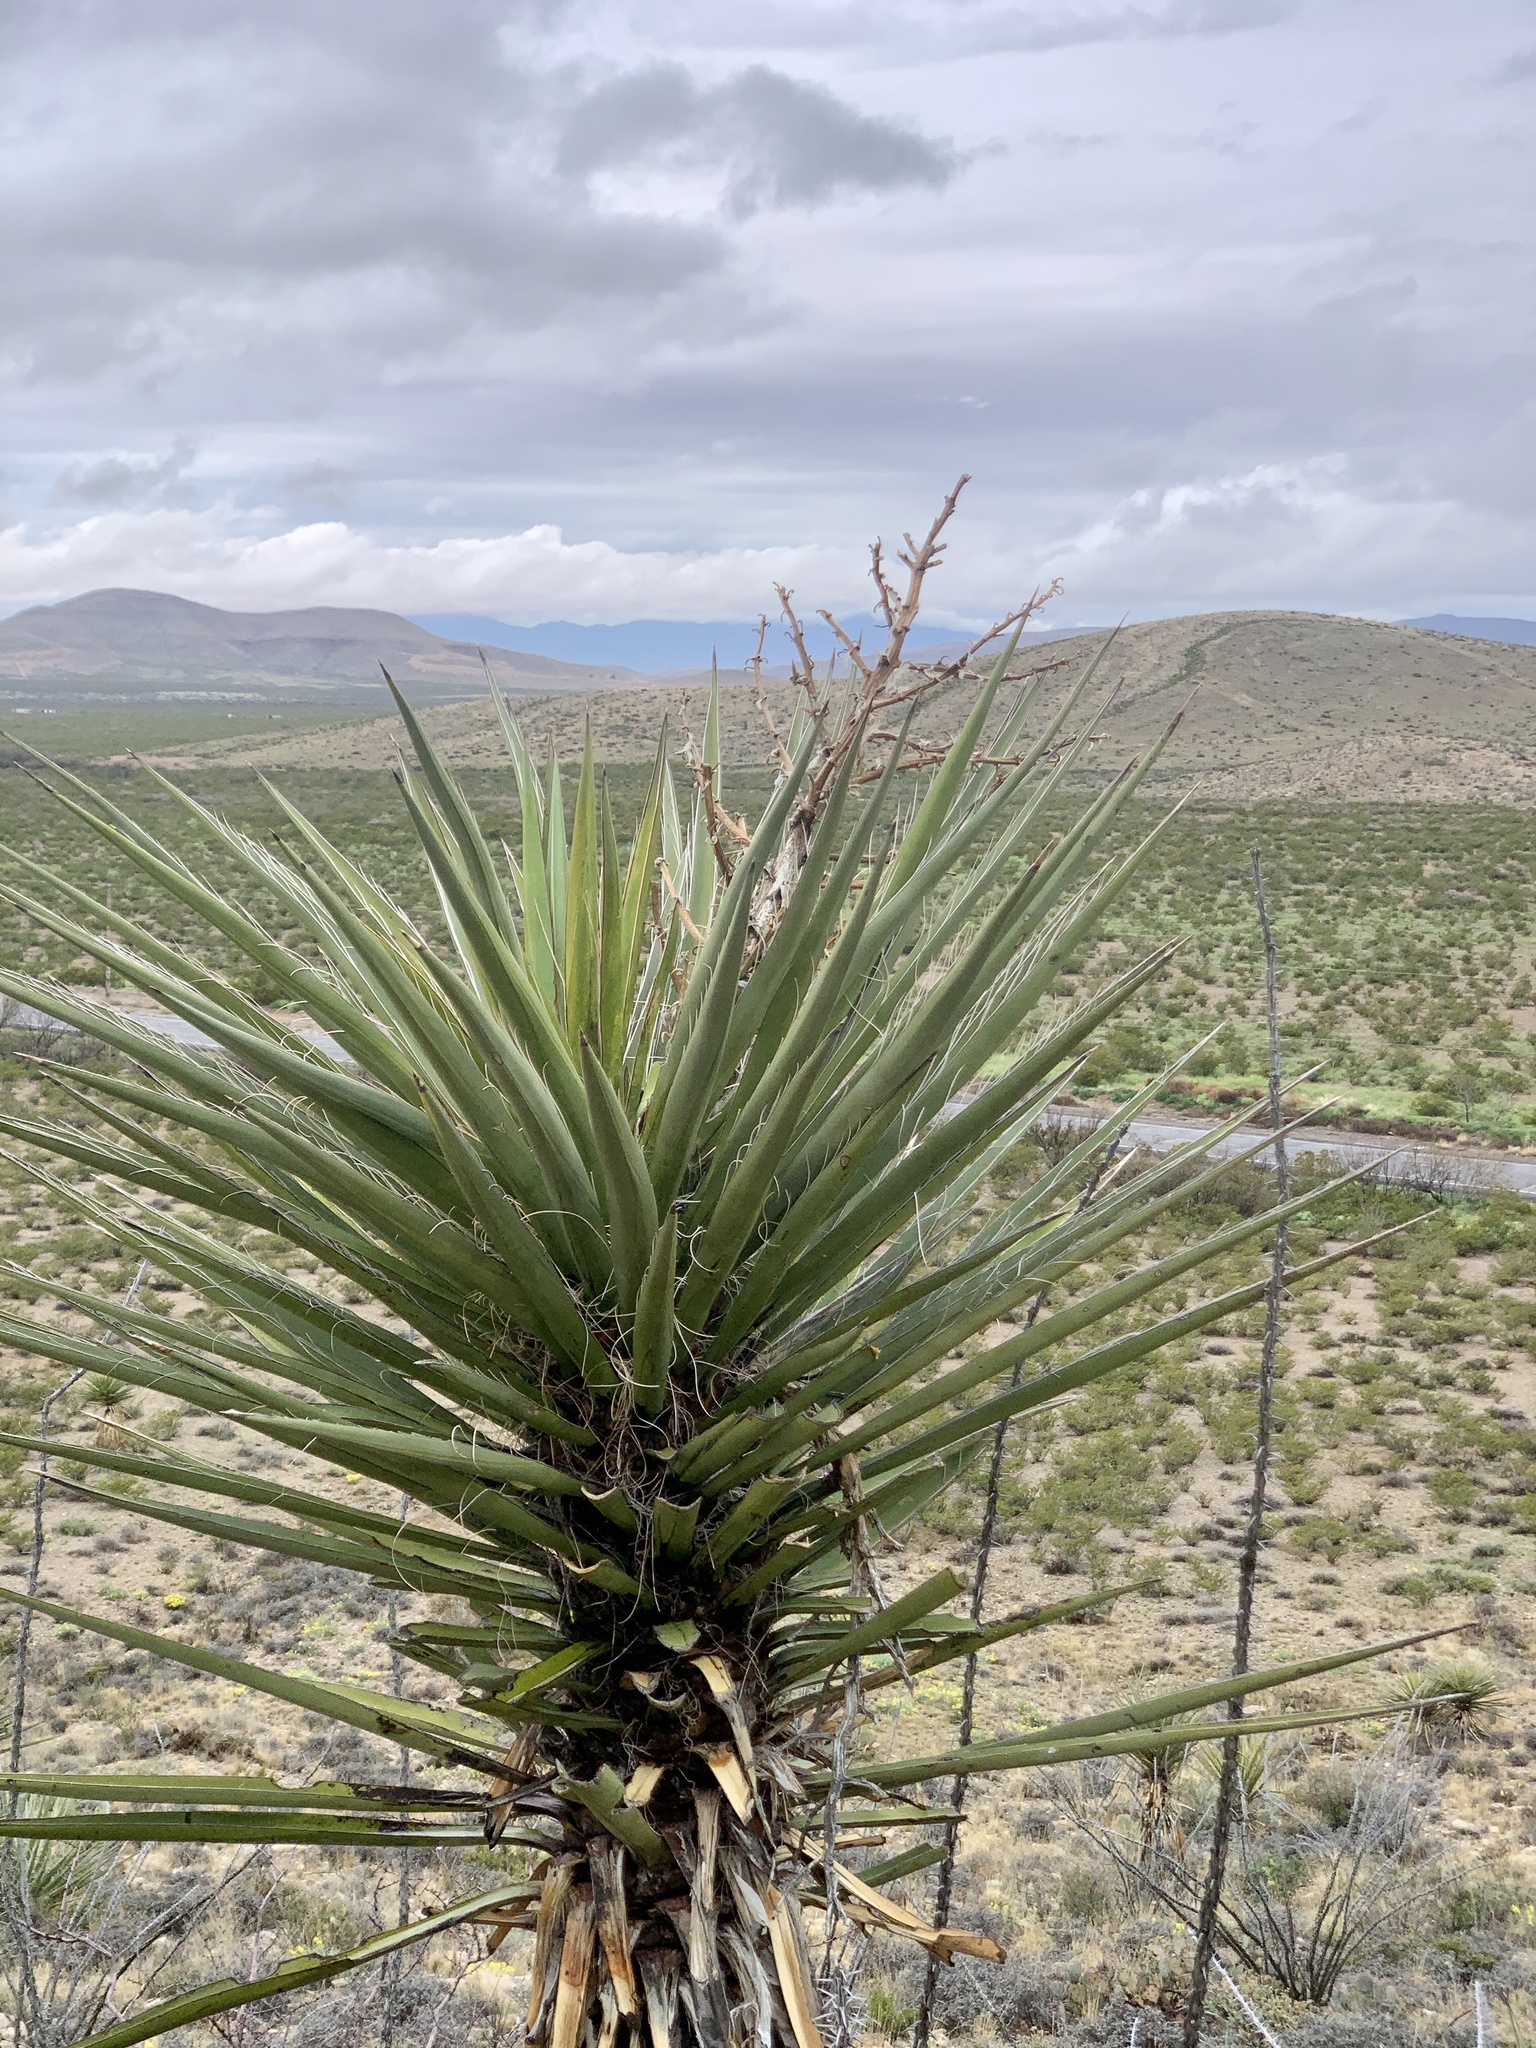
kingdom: Plantae
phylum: Tracheophyta
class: Liliopsida
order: Asparagales
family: Asparagaceae
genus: Yucca
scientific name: Yucca treculiana
